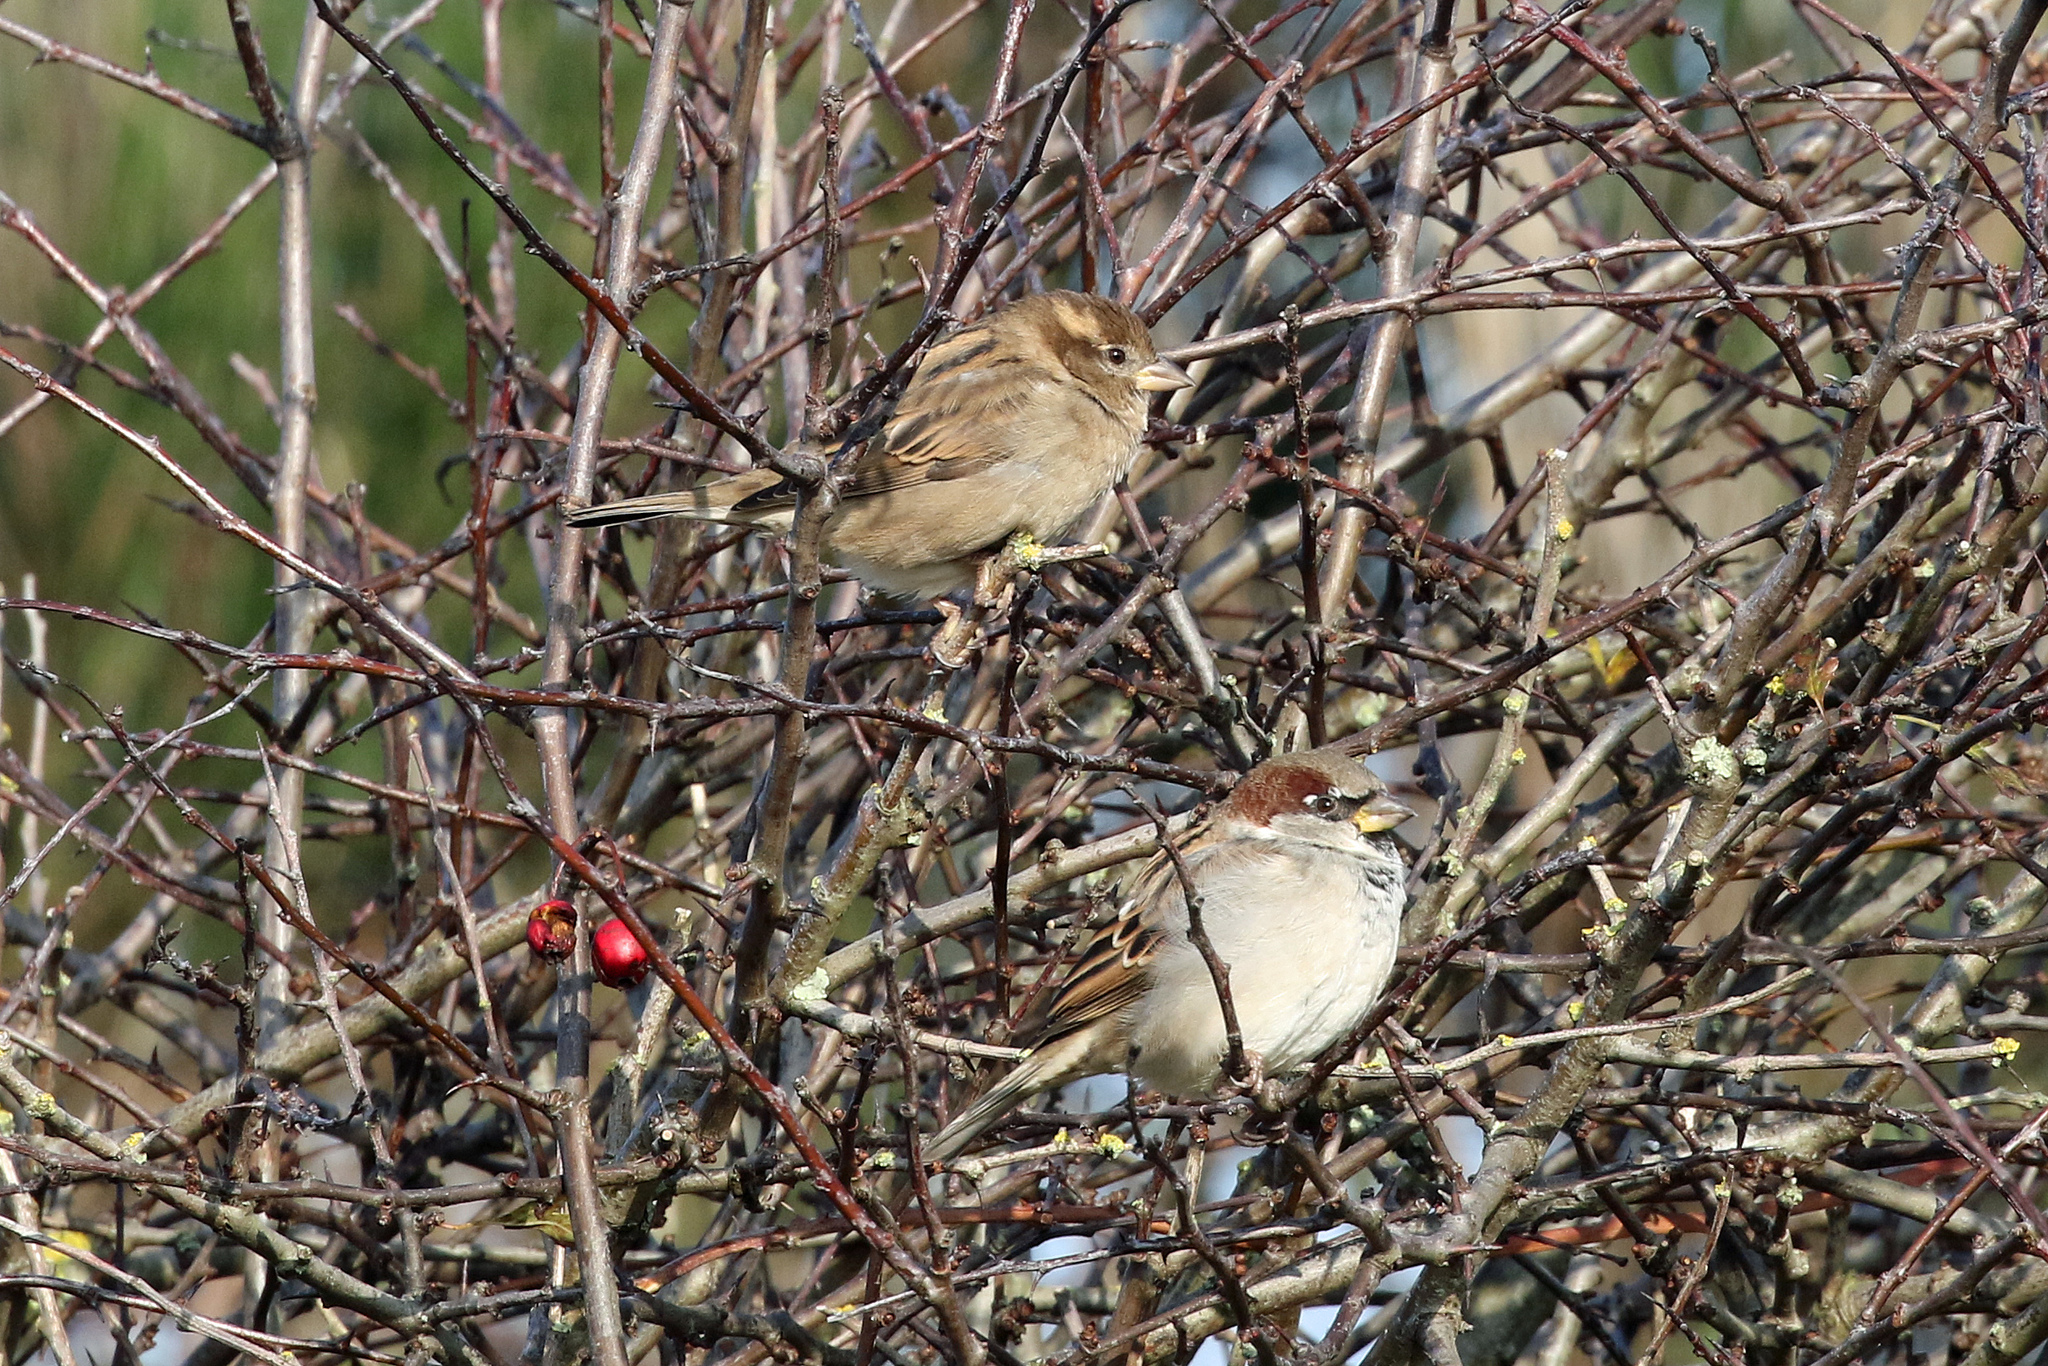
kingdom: Animalia
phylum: Chordata
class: Aves
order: Passeriformes
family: Passeridae
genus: Passer
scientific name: Passer domesticus
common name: House sparrow
